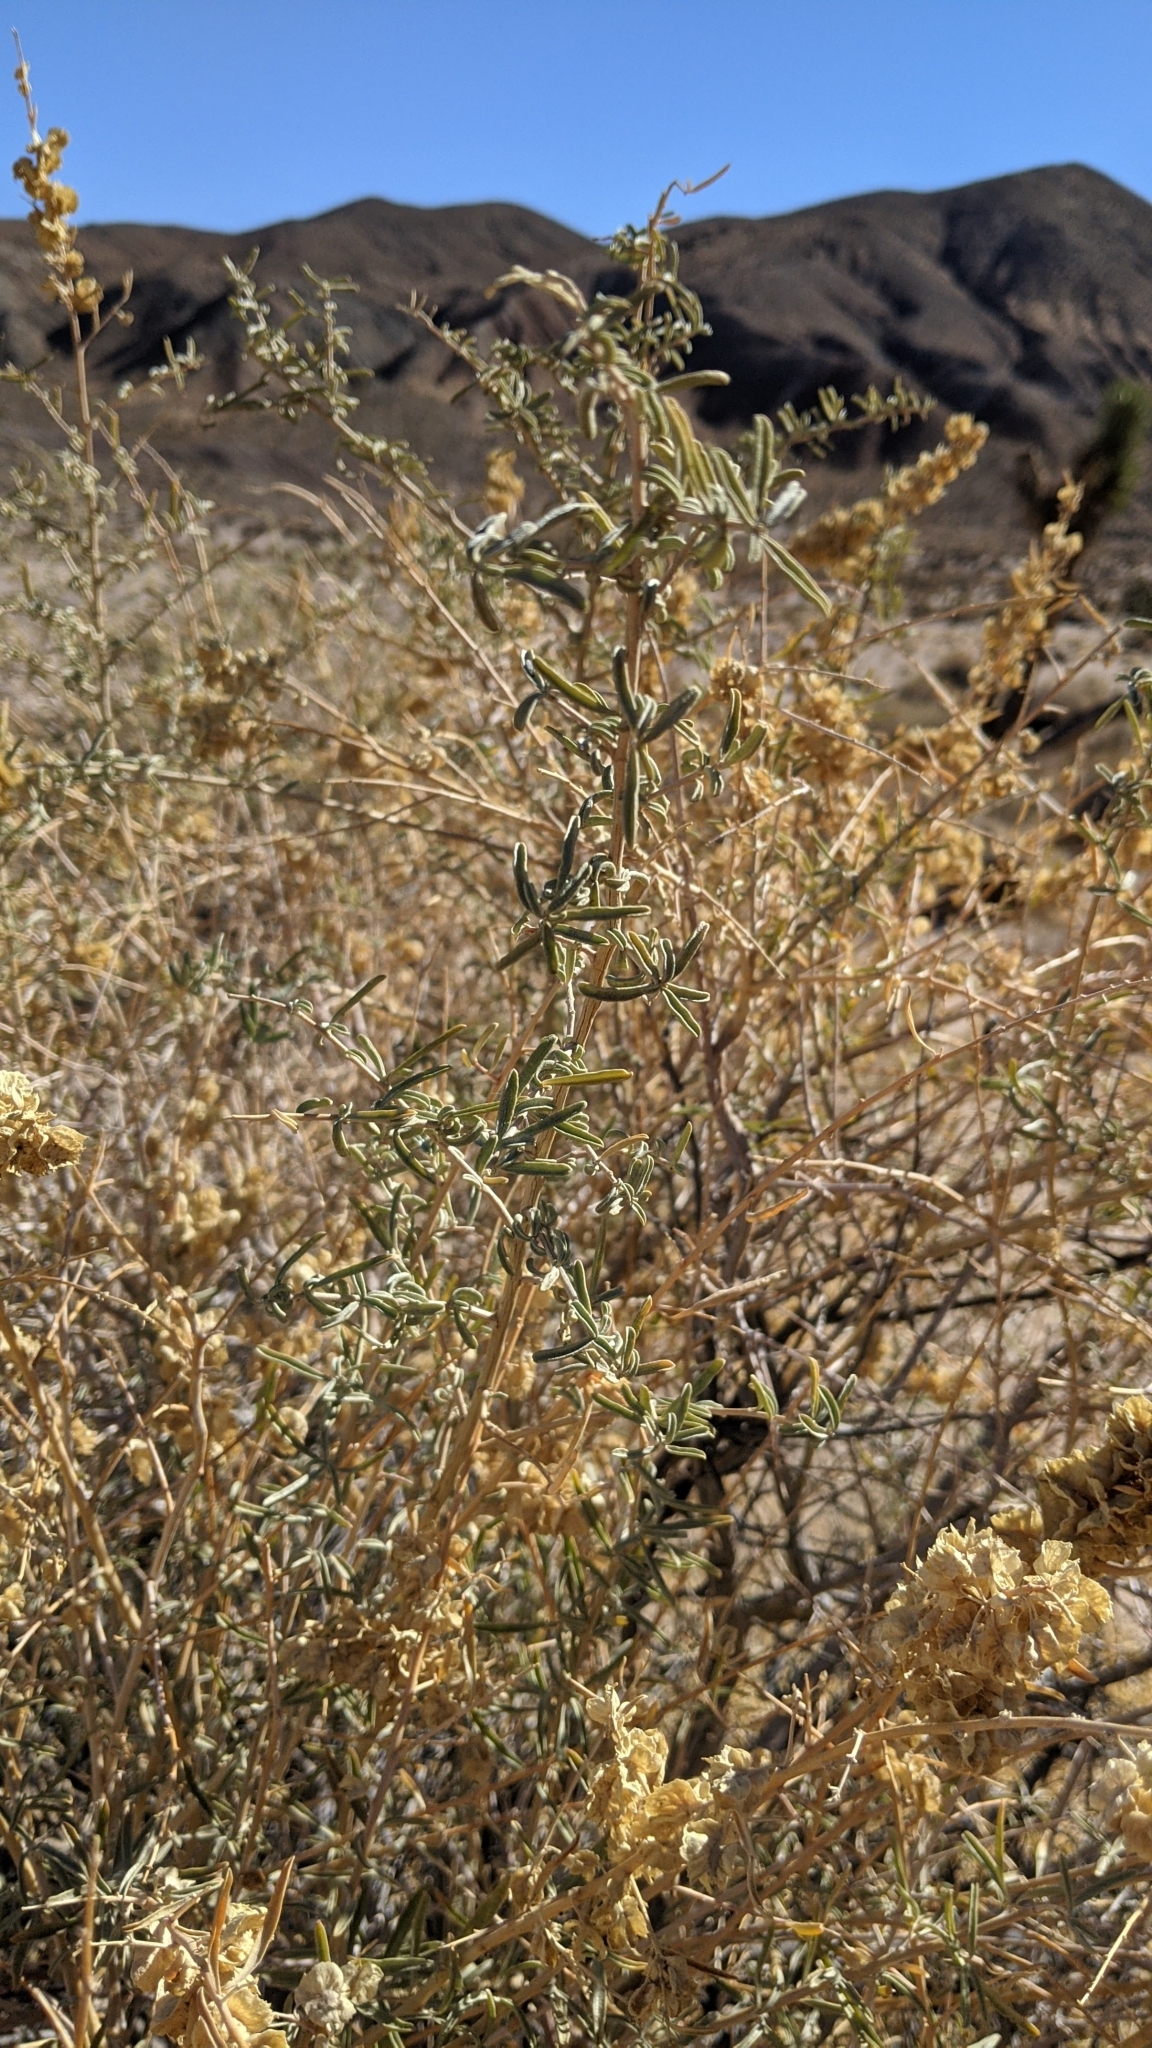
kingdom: Plantae
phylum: Tracheophyta
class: Magnoliopsida
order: Caryophyllales
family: Amaranthaceae
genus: Atriplex
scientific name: Atriplex canescens
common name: Four-wing saltbush
